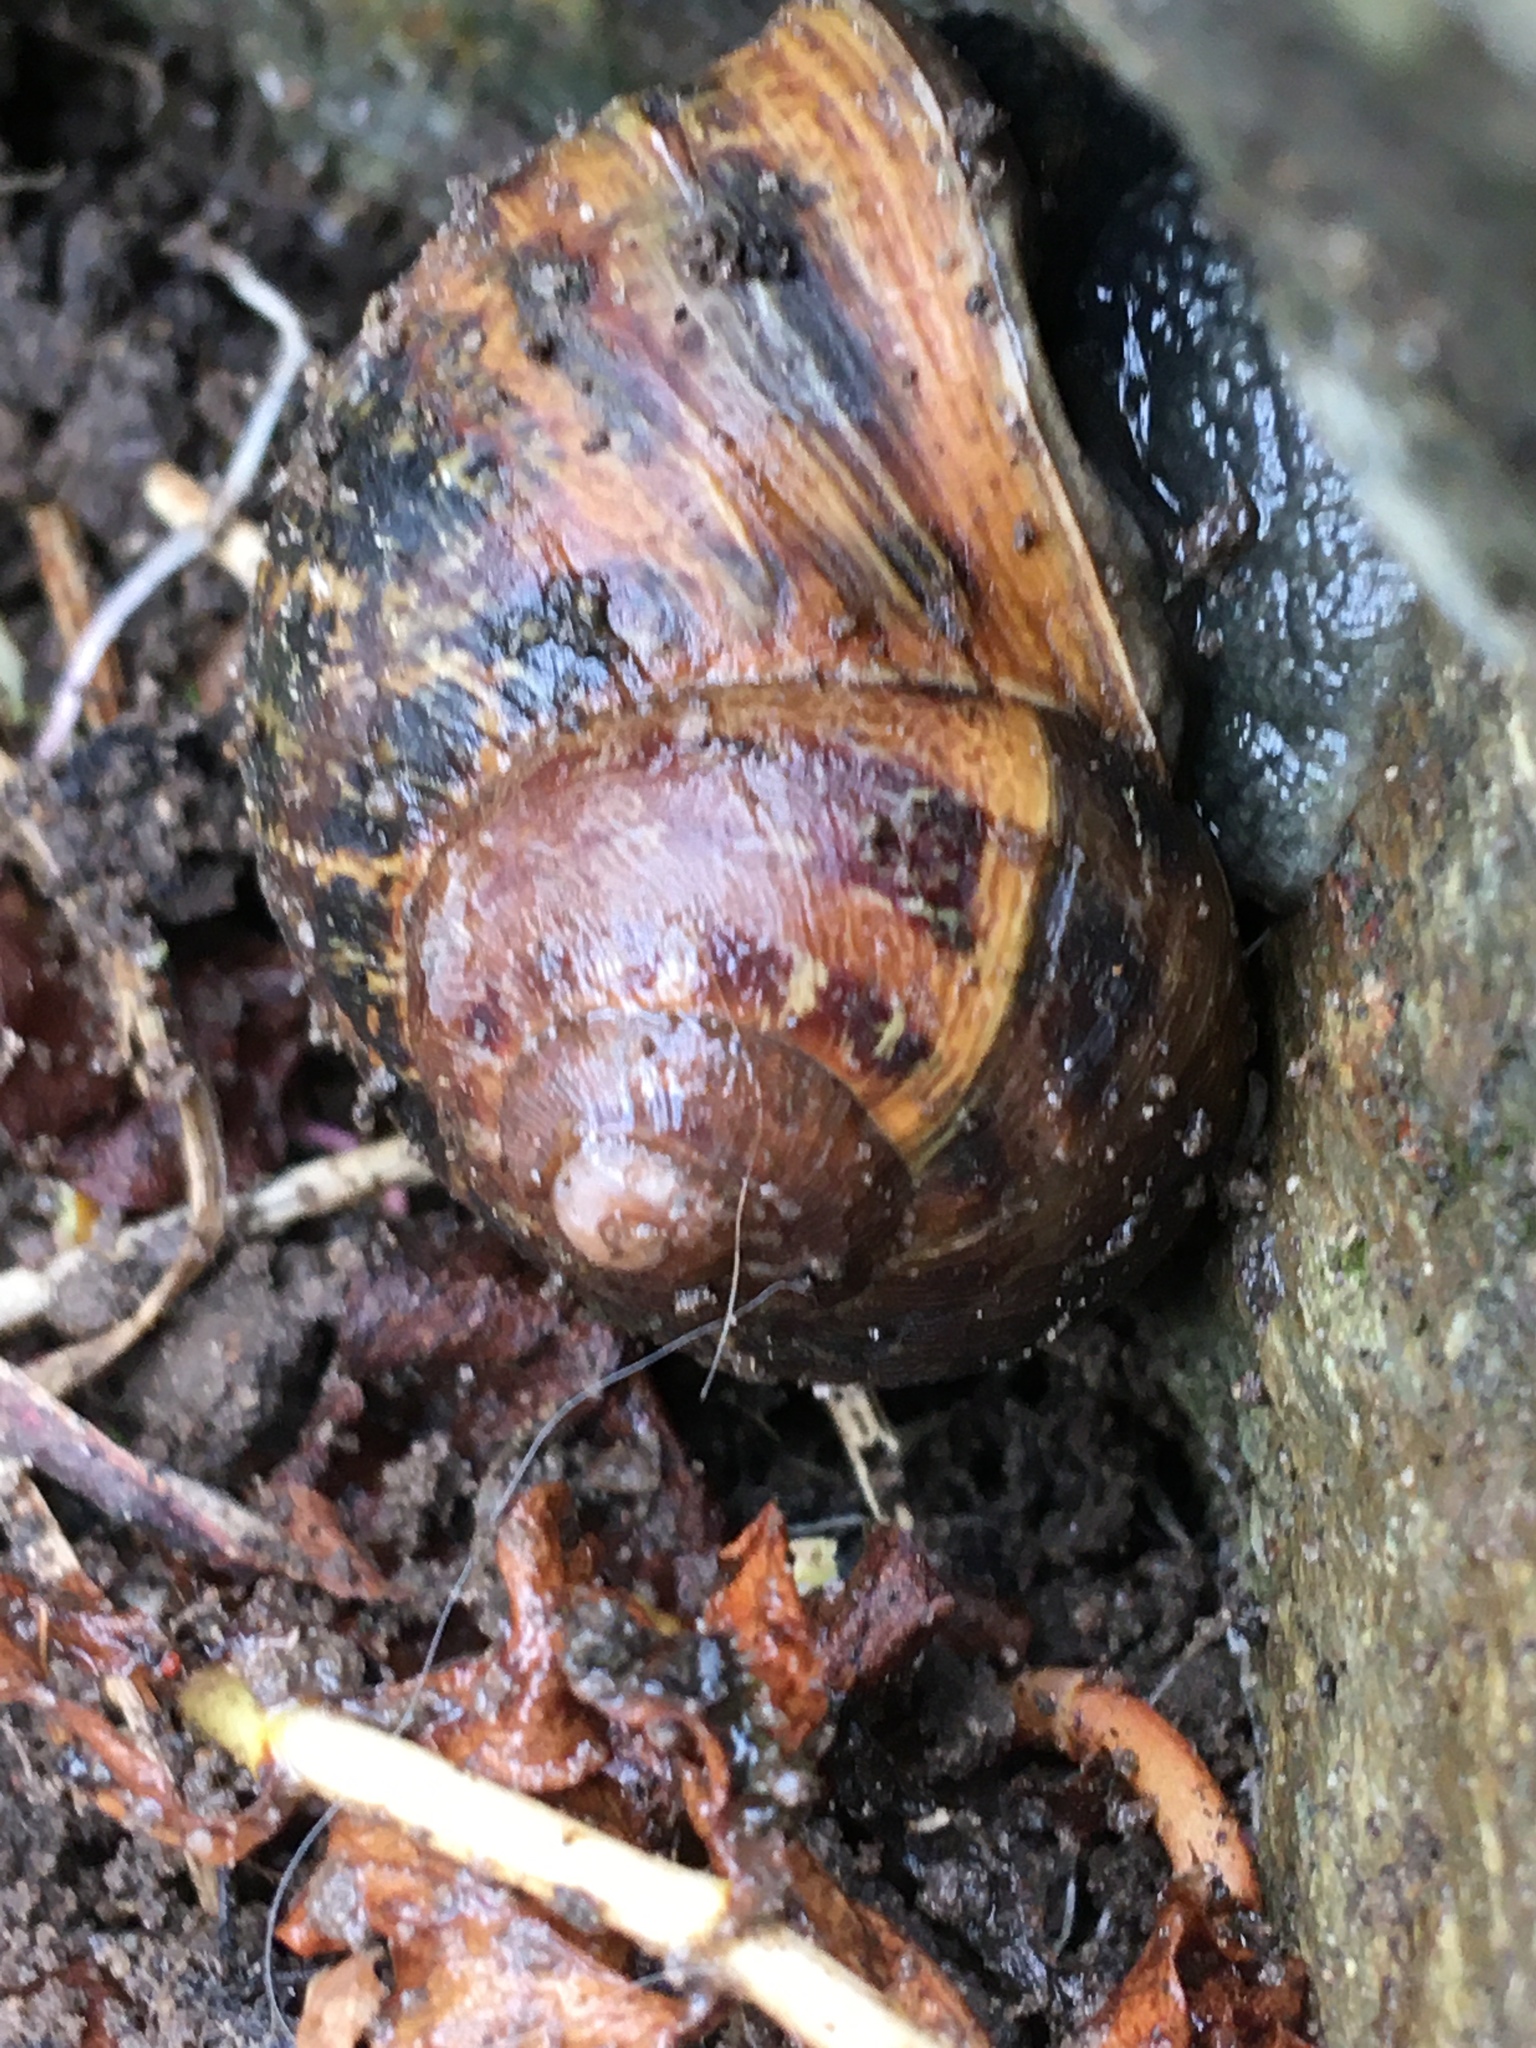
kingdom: Animalia
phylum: Mollusca
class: Gastropoda
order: Stylommatophora
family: Helicidae
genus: Cornu
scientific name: Cornu aspersum
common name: Brown garden snail
